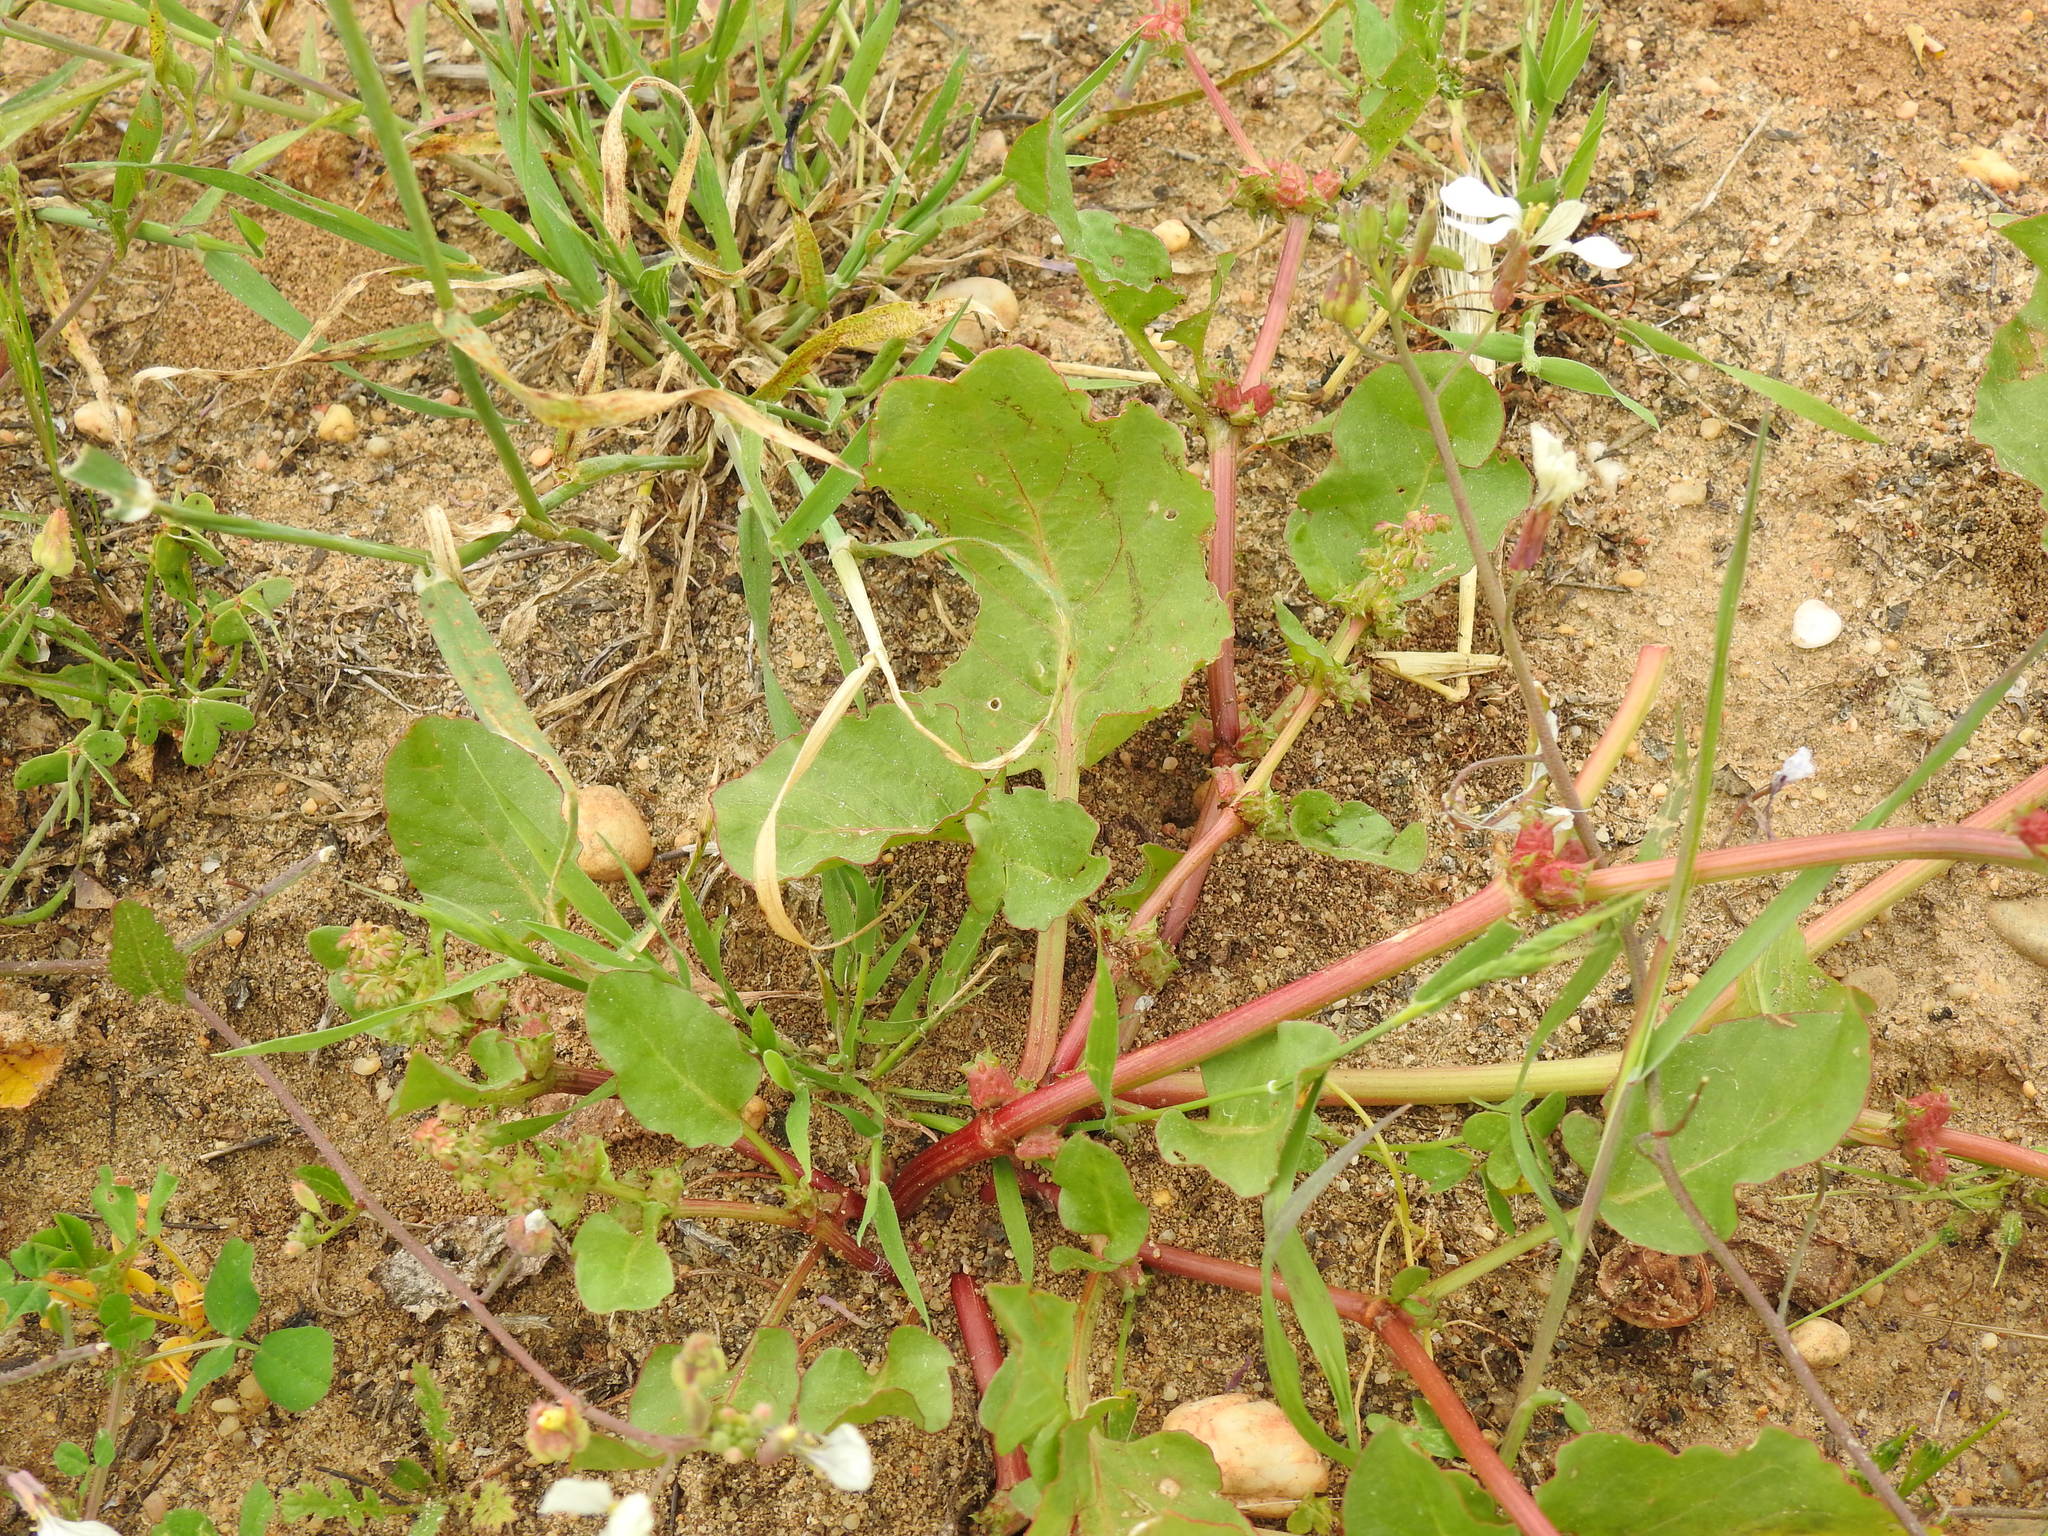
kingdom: Plantae
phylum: Tracheophyta
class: Magnoliopsida
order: Caryophyllales
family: Polygonaceae
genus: Rumex
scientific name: Rumex spinosus
